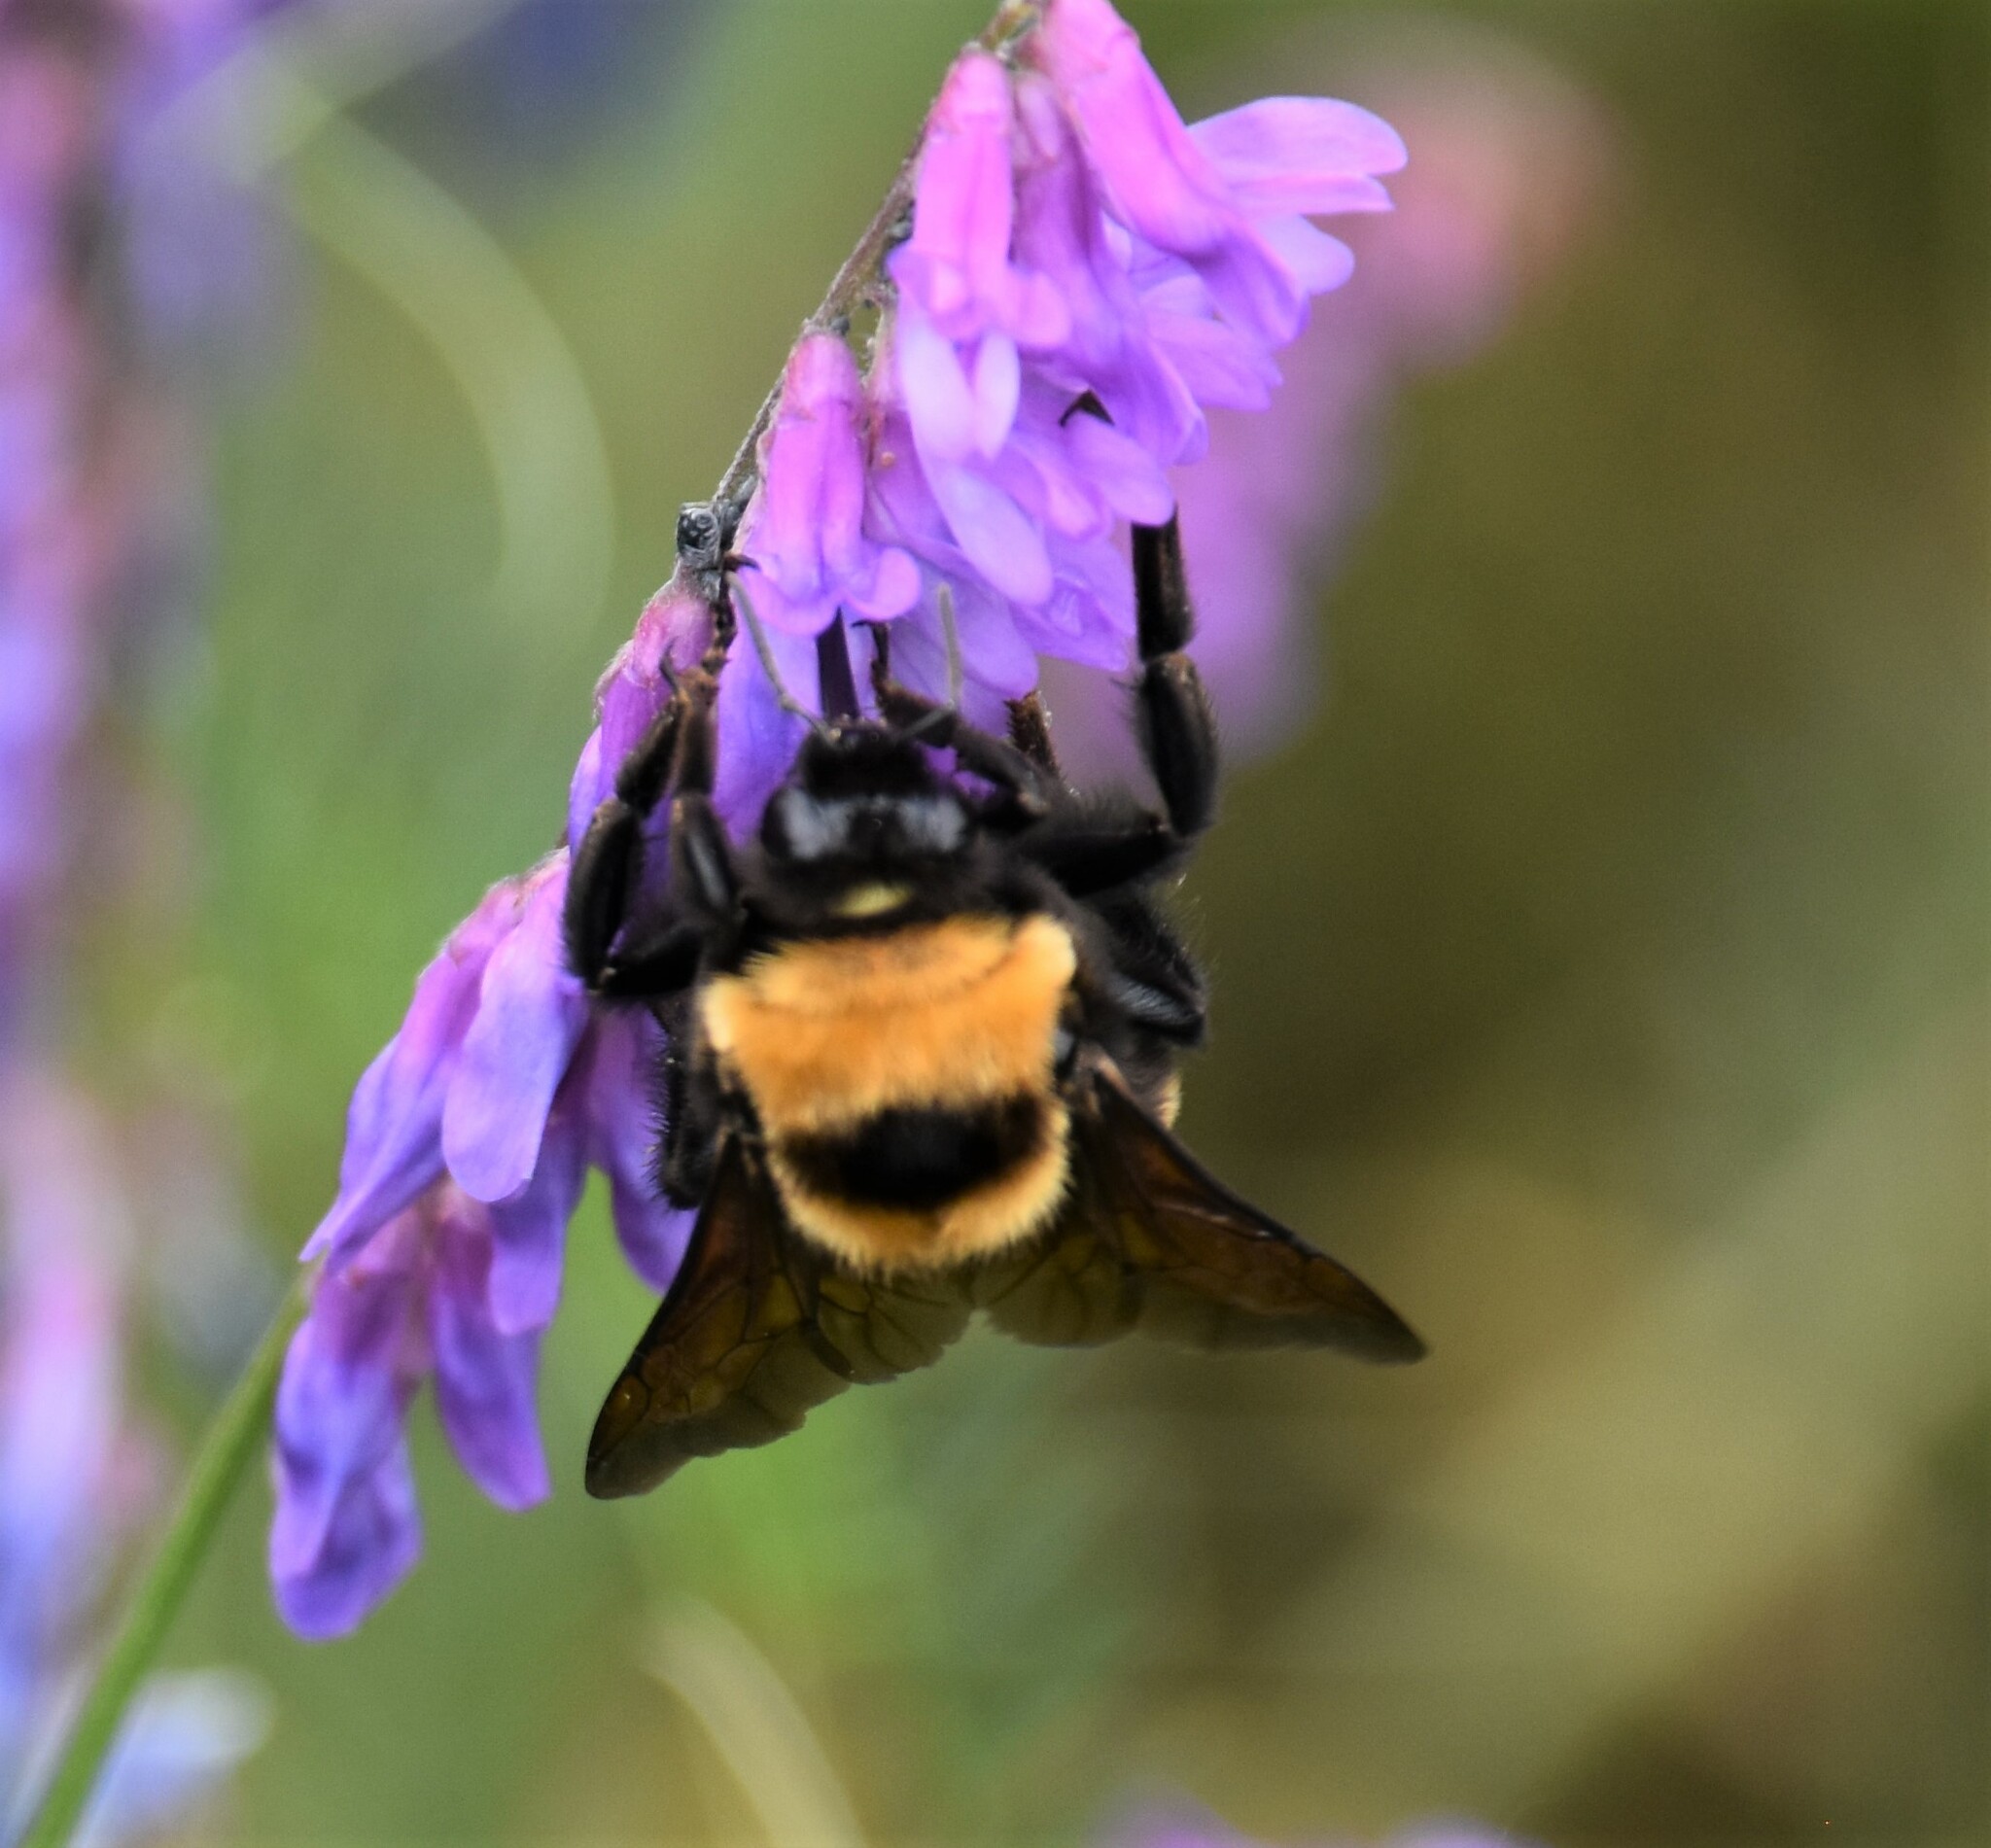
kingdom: Animalia
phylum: Arthropoda
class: Insecta
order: Hymenoptera
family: Apidae
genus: Bombus
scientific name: Bombus nevadensis
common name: Nevada bumble bee
